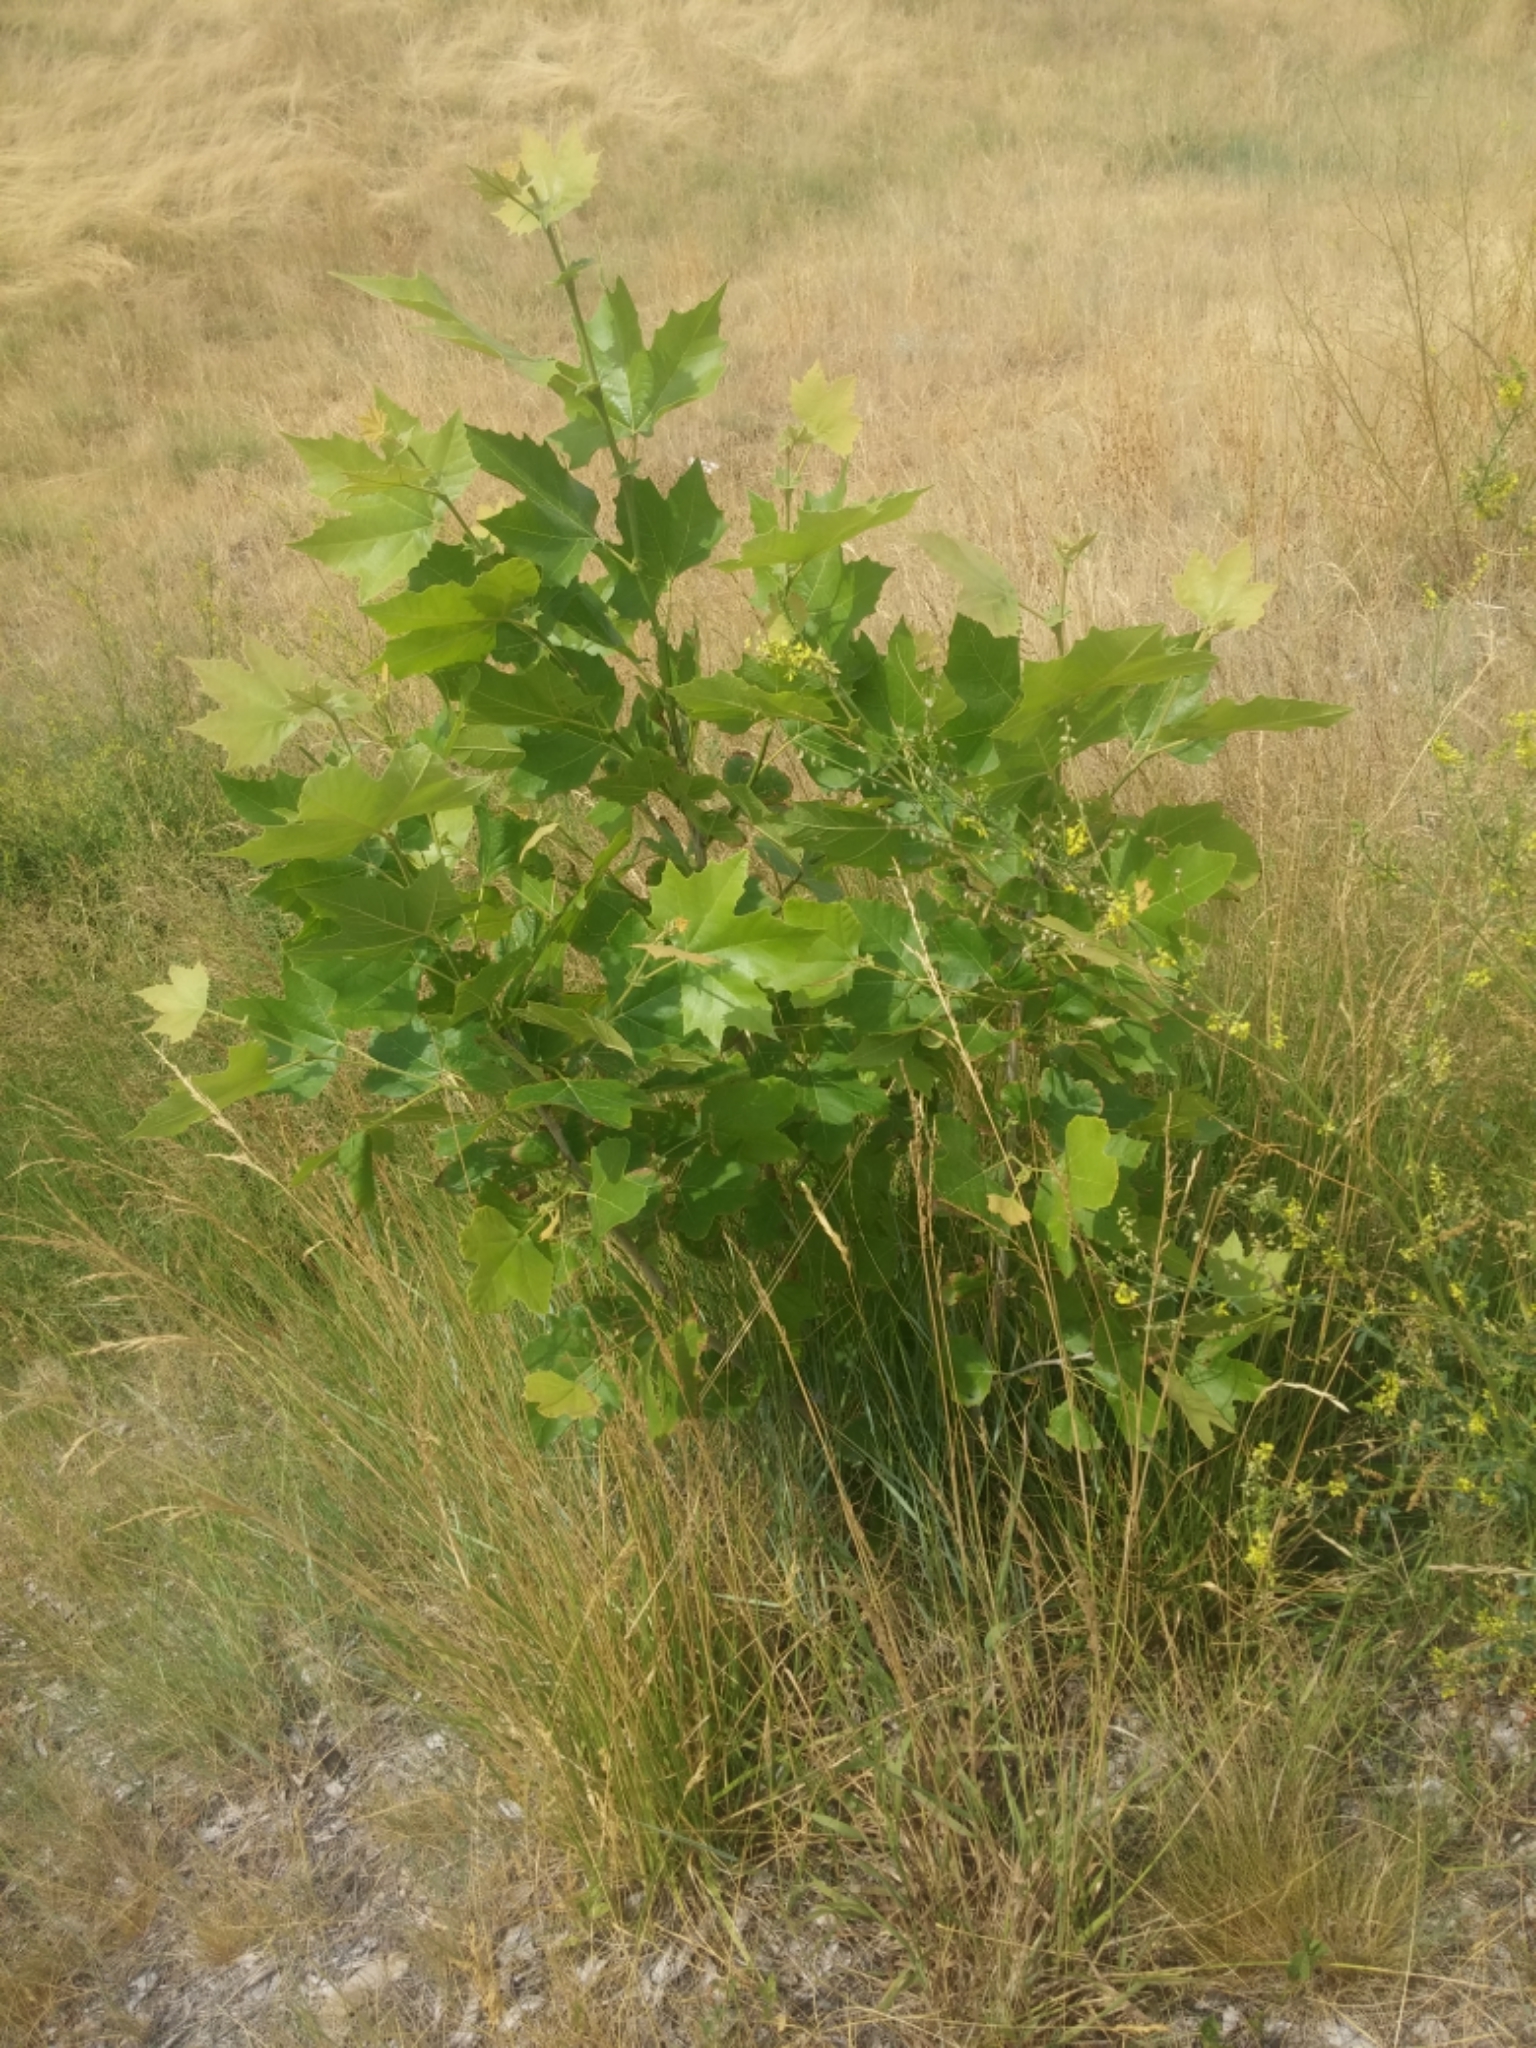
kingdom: Plantae
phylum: Tracheophyta
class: Magnoliopsida
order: Proteales
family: Platanaceae
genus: Platanus
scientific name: Platanus occidentalis
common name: American sycamore
